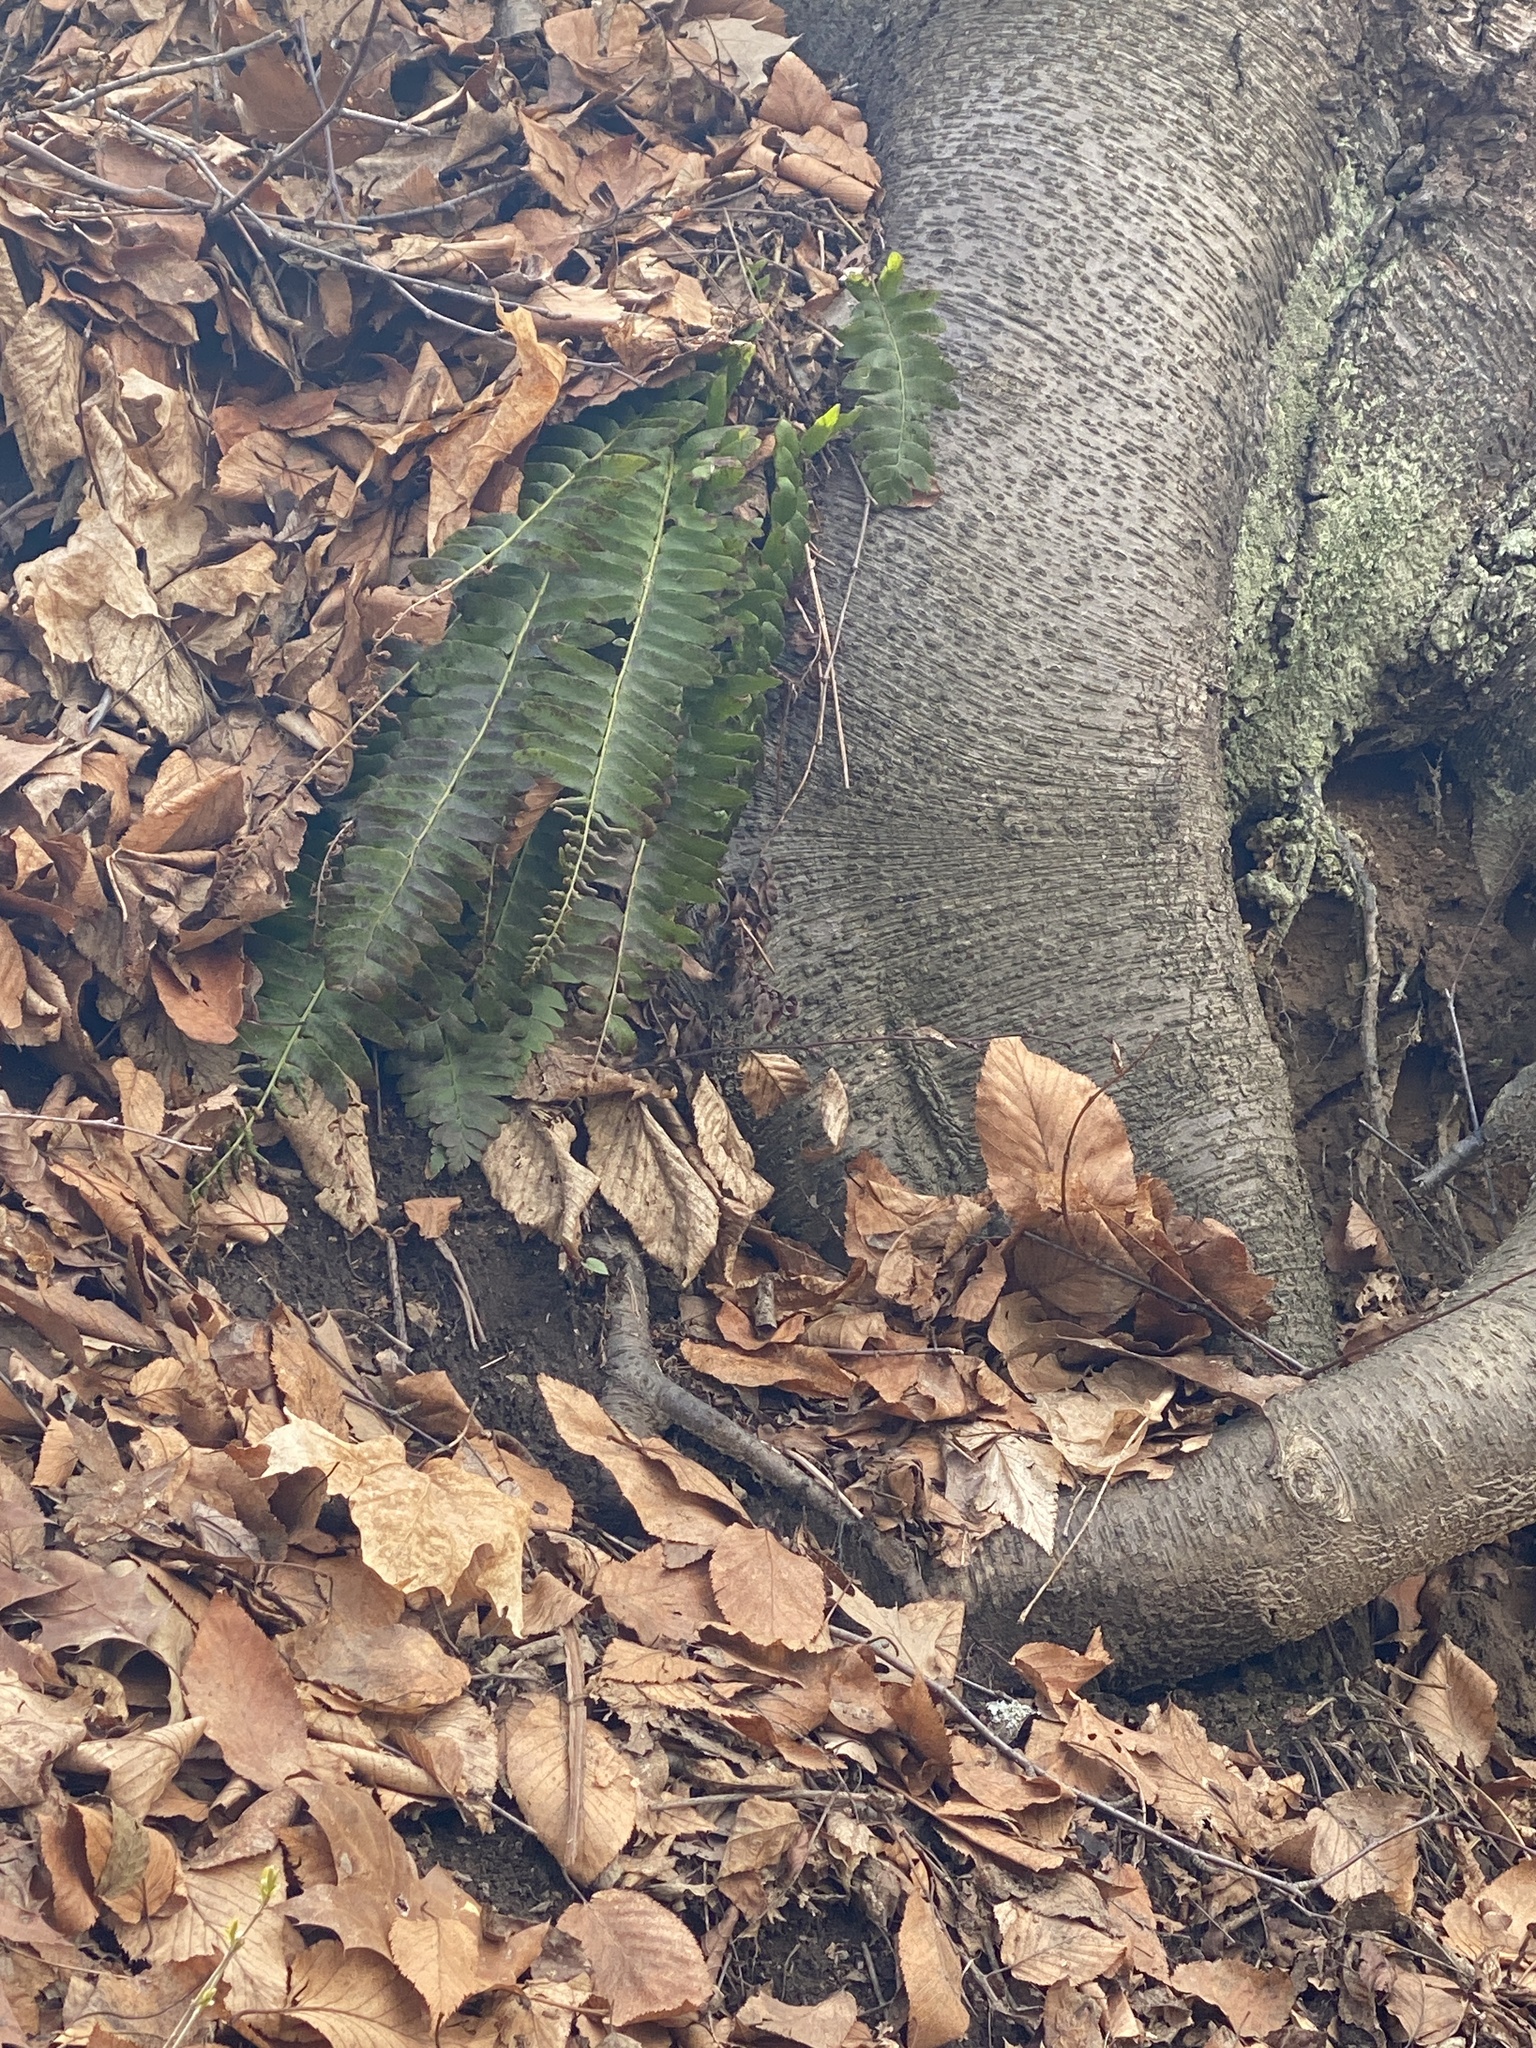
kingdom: Plantae
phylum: Tracheophyta
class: Polypodiopsida
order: Polypodiales
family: Dryopteridaceae
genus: Polystichum
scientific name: Polystichum acrostichoides
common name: Christmas fern
